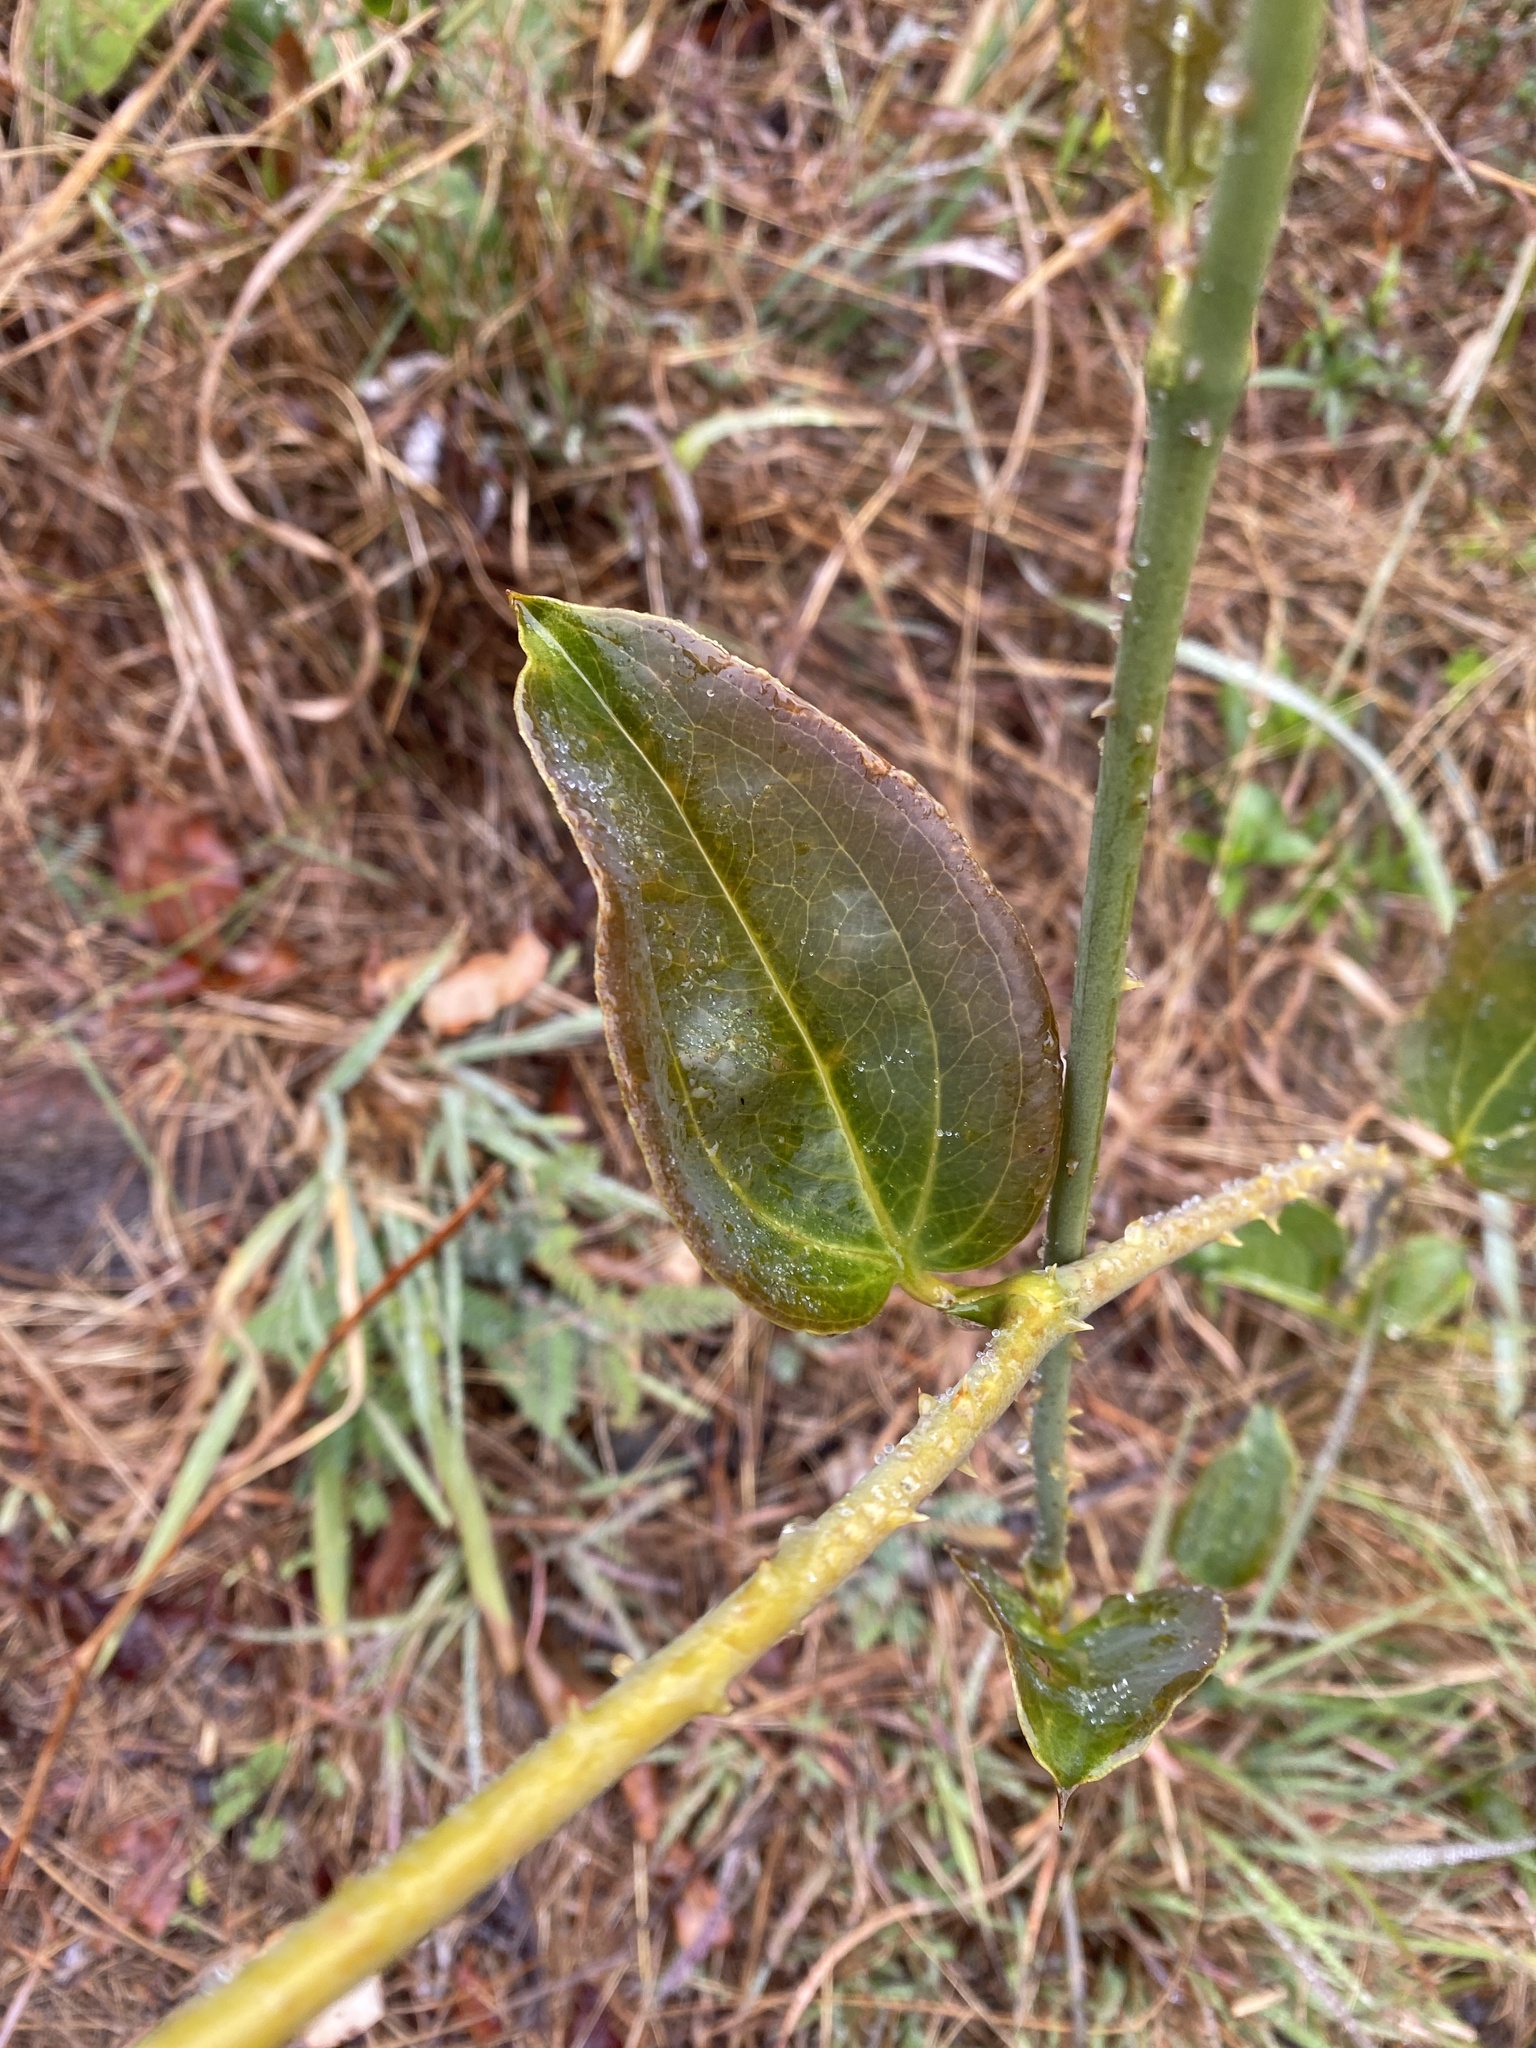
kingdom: Plantae
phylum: Tracheophyta
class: Liliopsida
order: Liliales
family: Smilacaceae
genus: Smilax
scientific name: Smilax anceps
